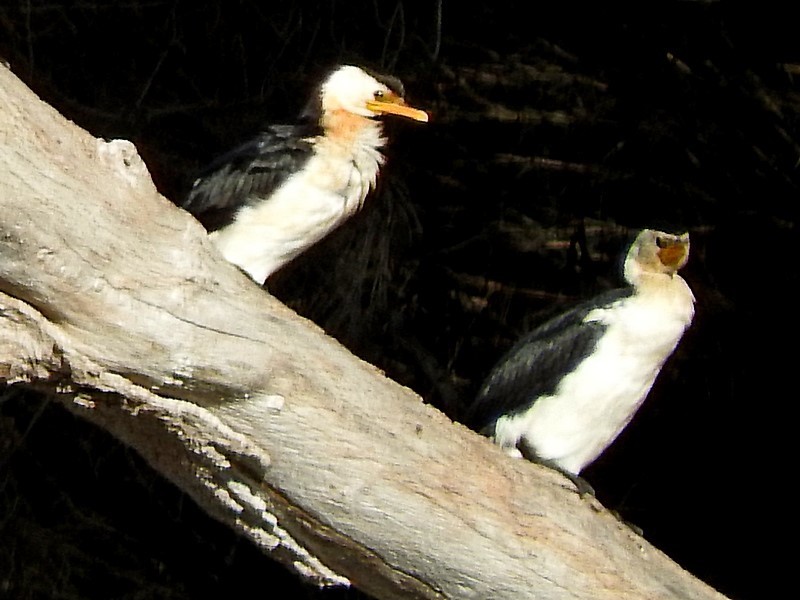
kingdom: Animalia
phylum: Chordata
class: Aves
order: Suliformes
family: Phalacrocoracidae
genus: Microcarbo
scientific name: Microcarbo melanoleucos
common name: Little pied cormorant
